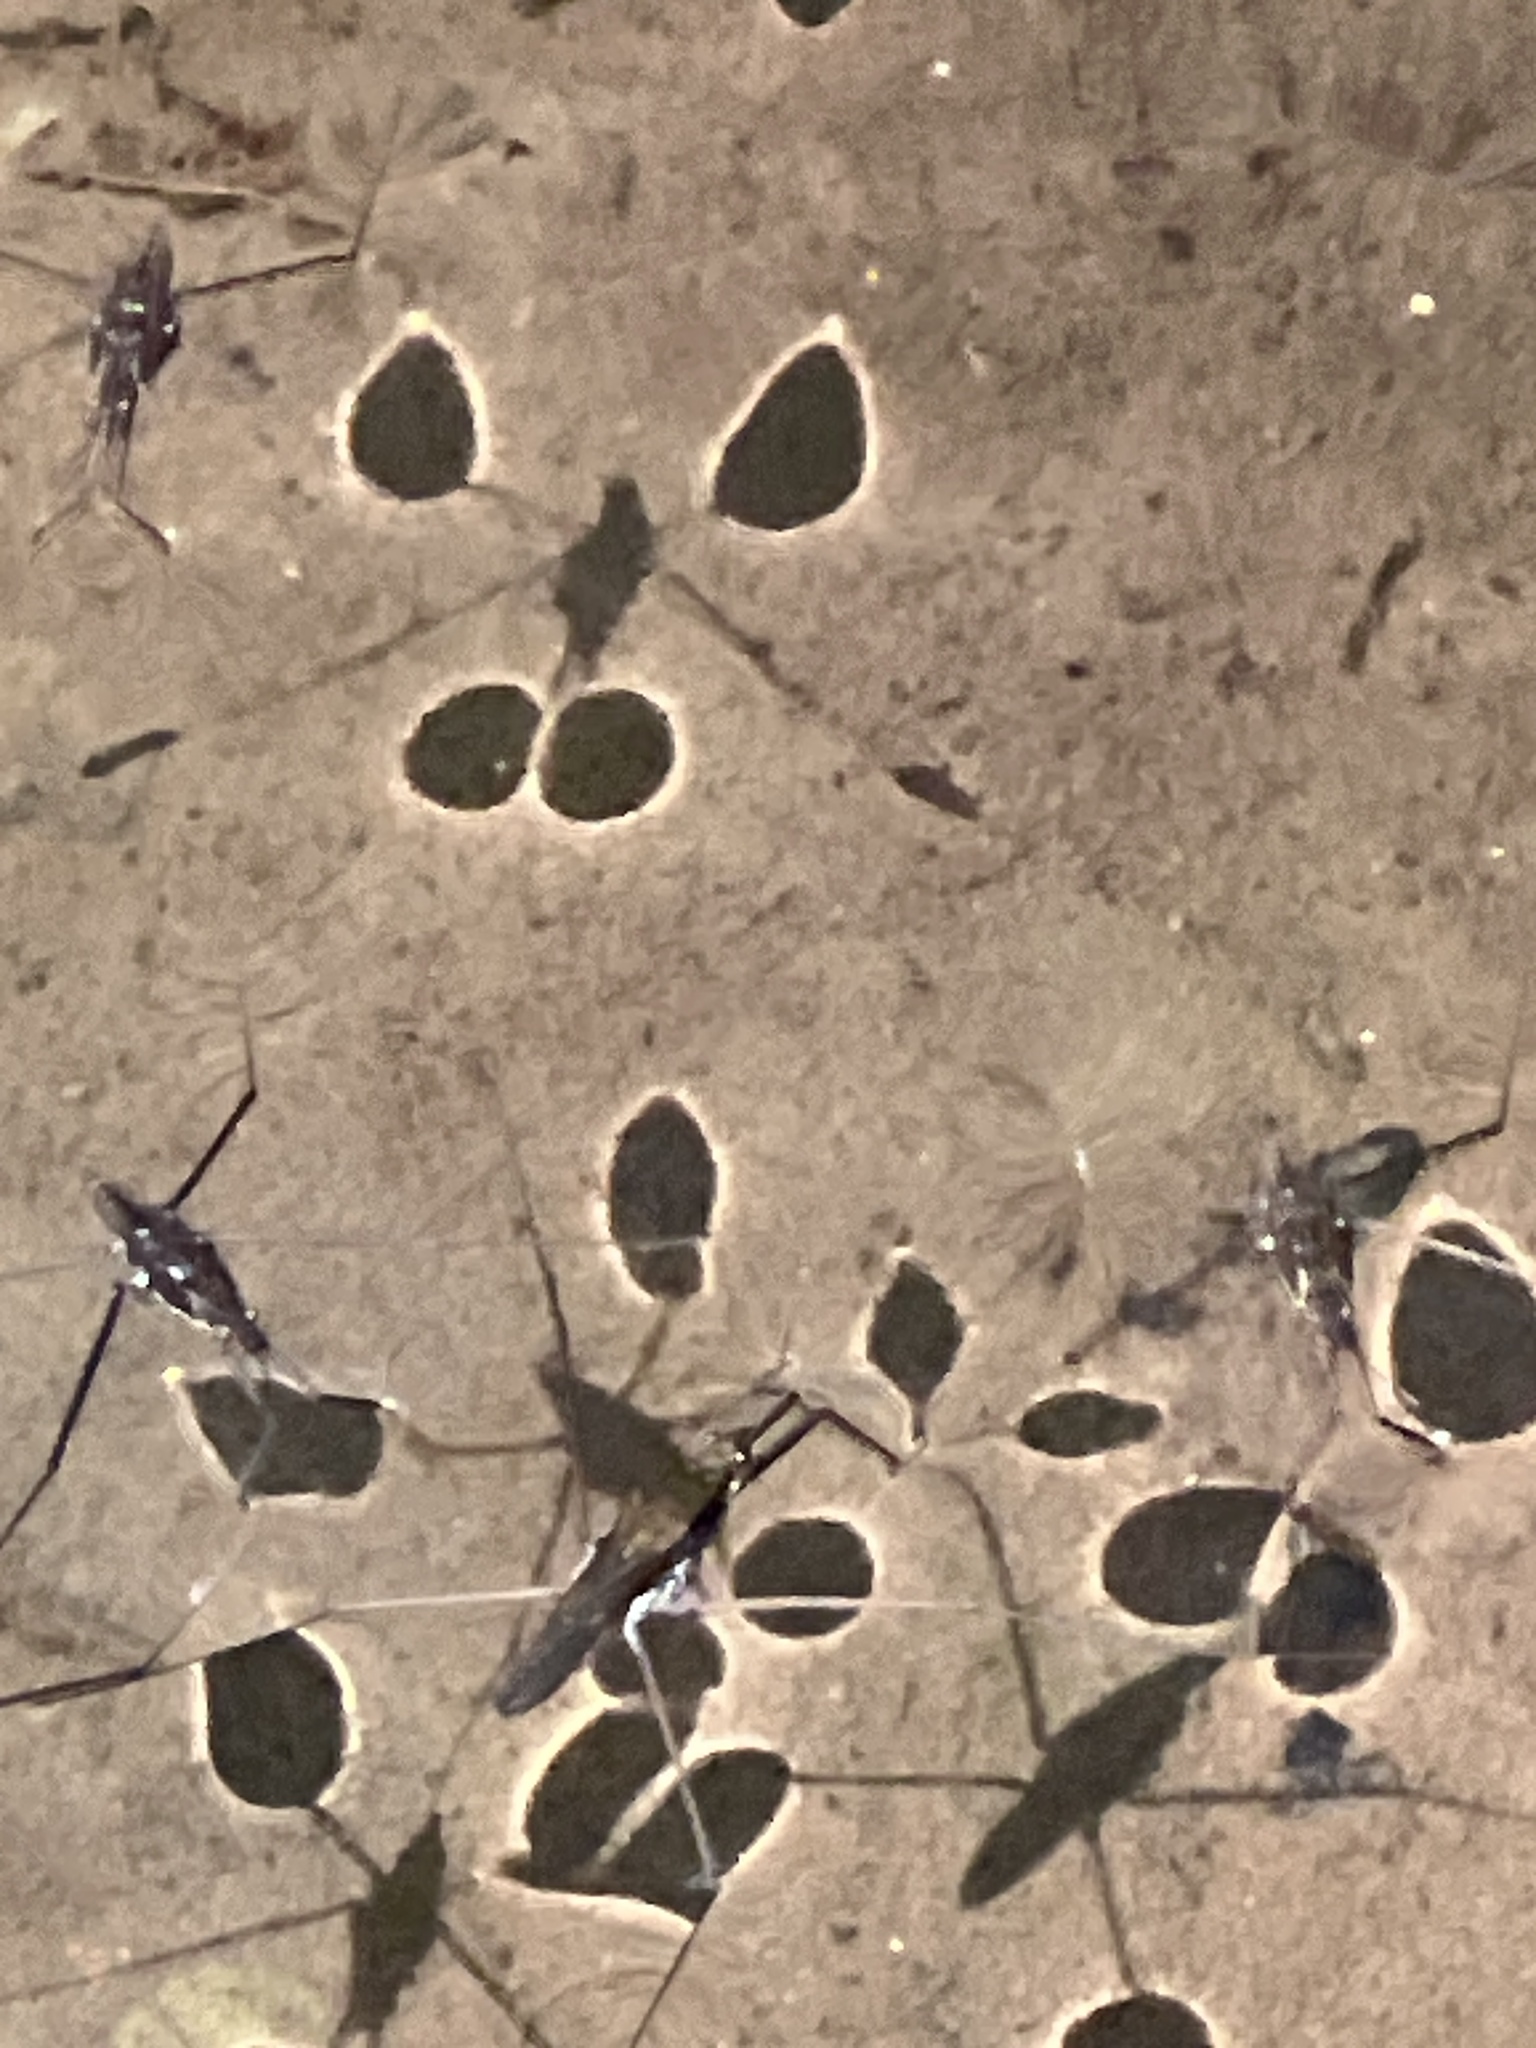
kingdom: Animalia
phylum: Arthropoda
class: Insecta
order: Hemiptera
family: Gerridae
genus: Aquarius
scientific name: Aquarius
